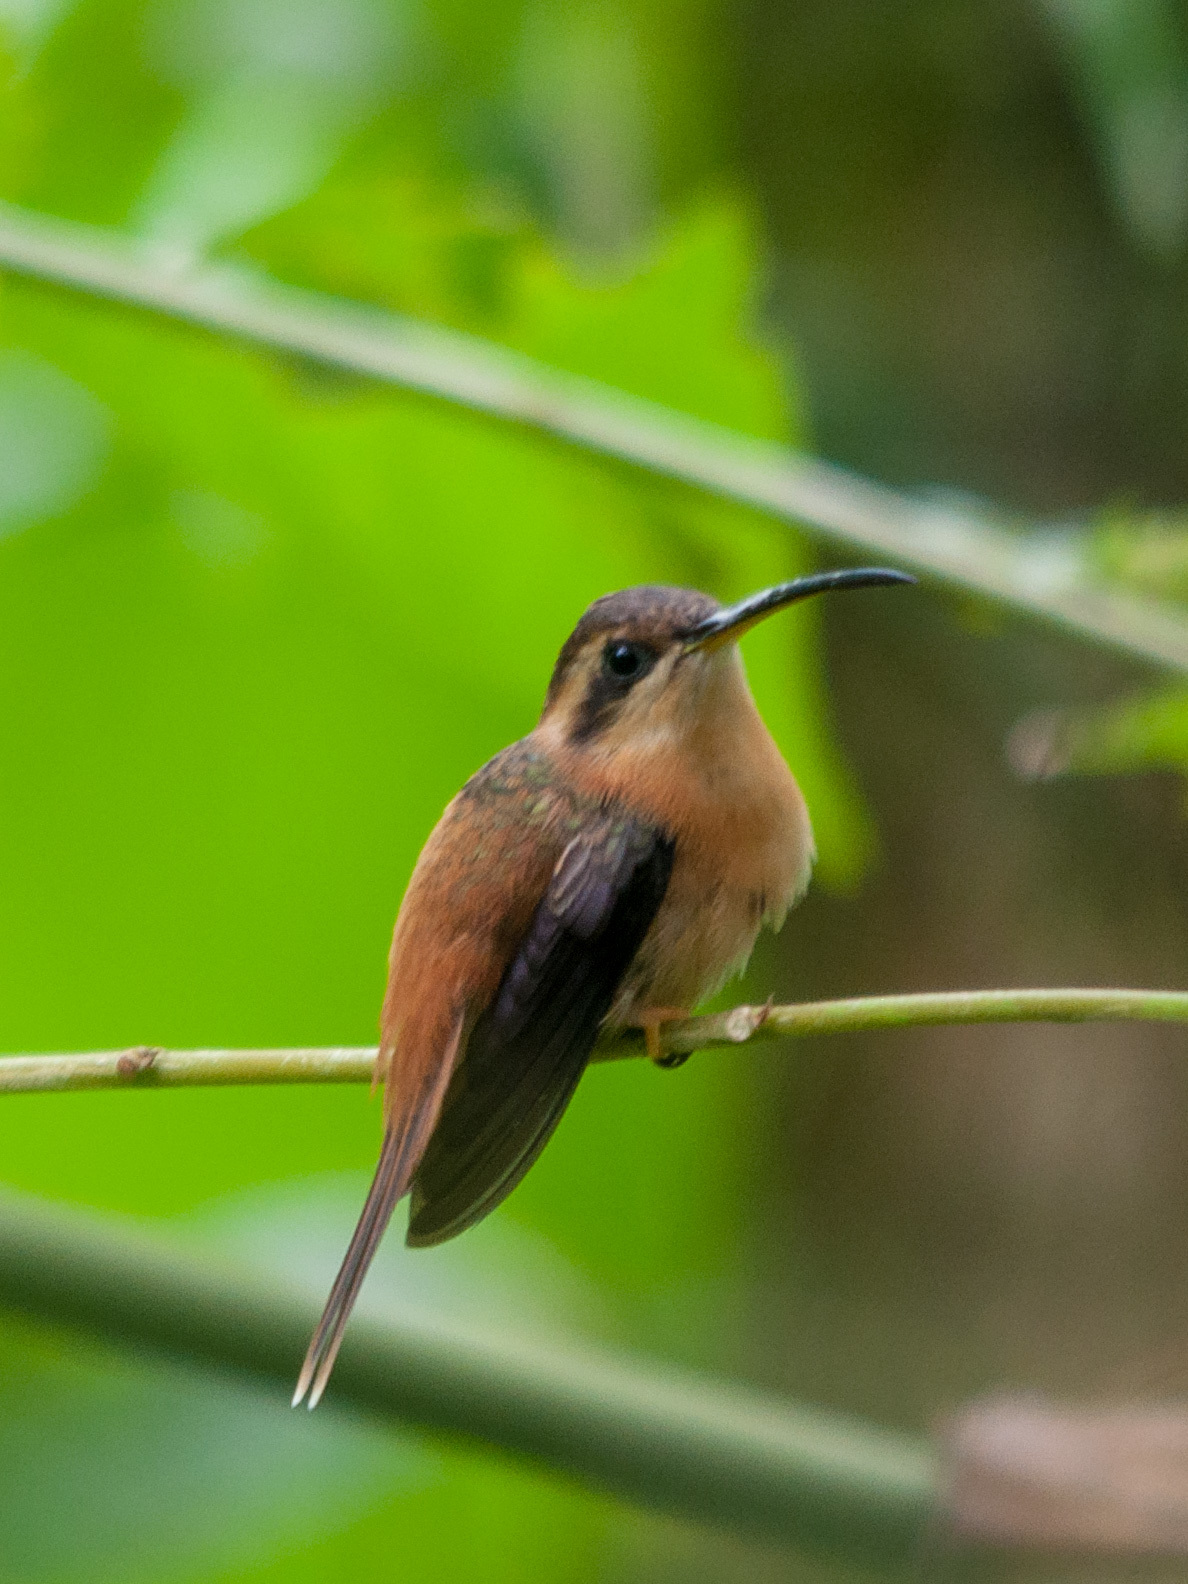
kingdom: Animalia
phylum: Chordata
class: Aves
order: Apodiformes
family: Trochilidae
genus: Phaethornis
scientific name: Phaethornis ruber
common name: Reddish hermit
